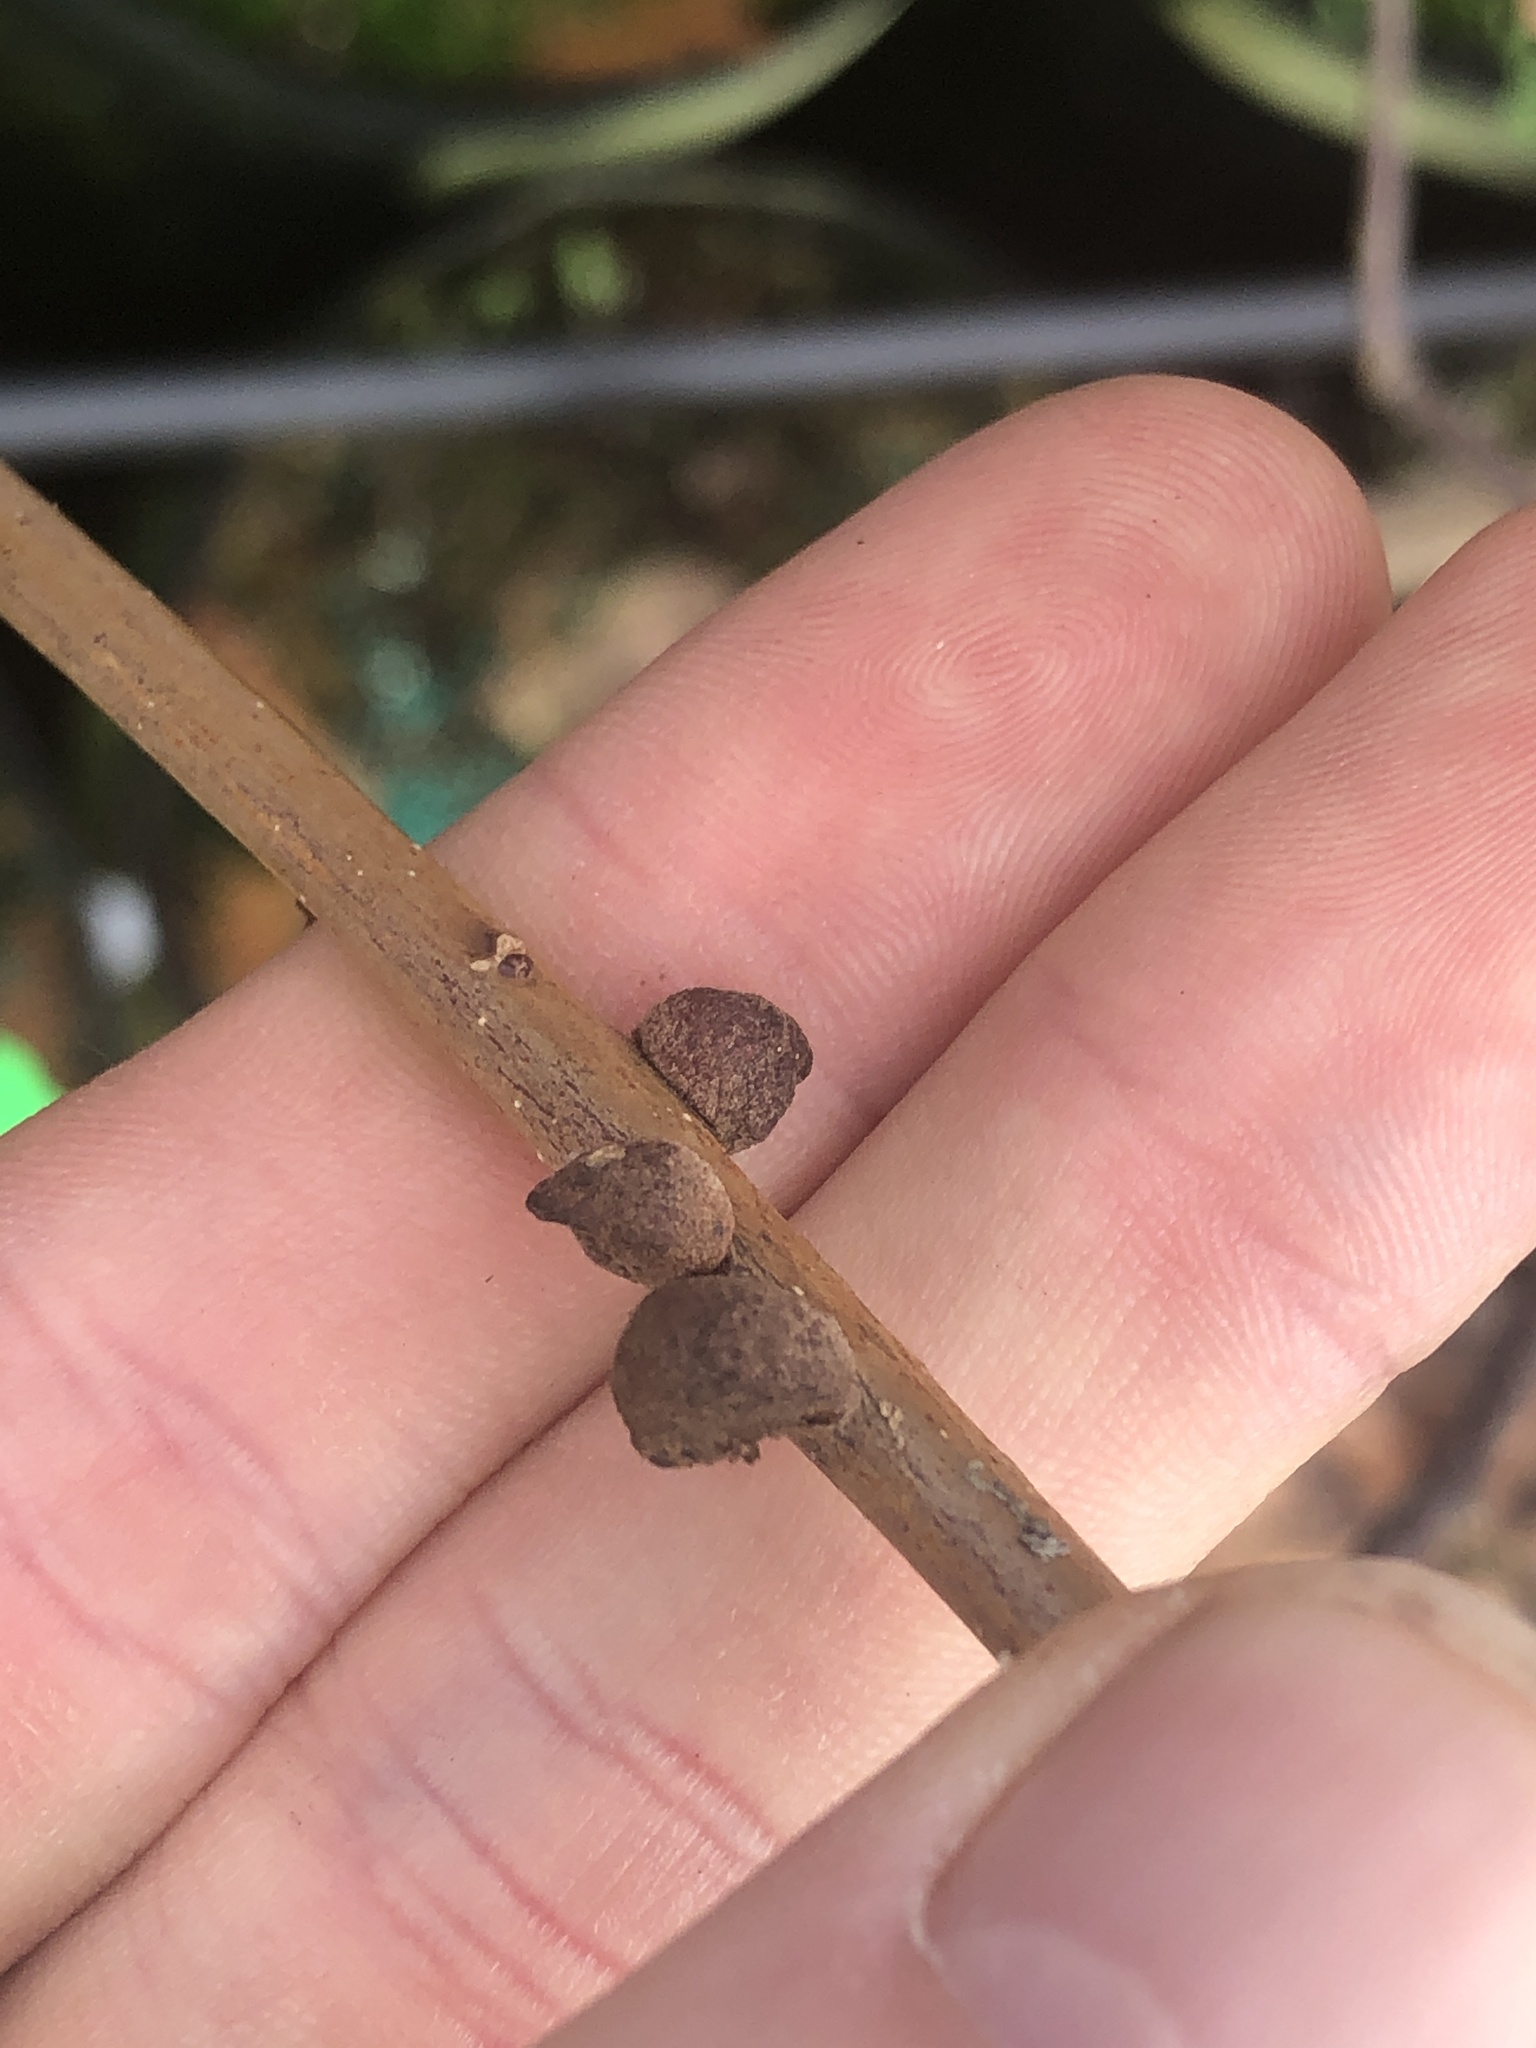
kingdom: Animalia
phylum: Arthropoda
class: Insecta
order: Hymenoptera
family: Cynipidae
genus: Disholcaspis
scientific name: Disholcaspis
